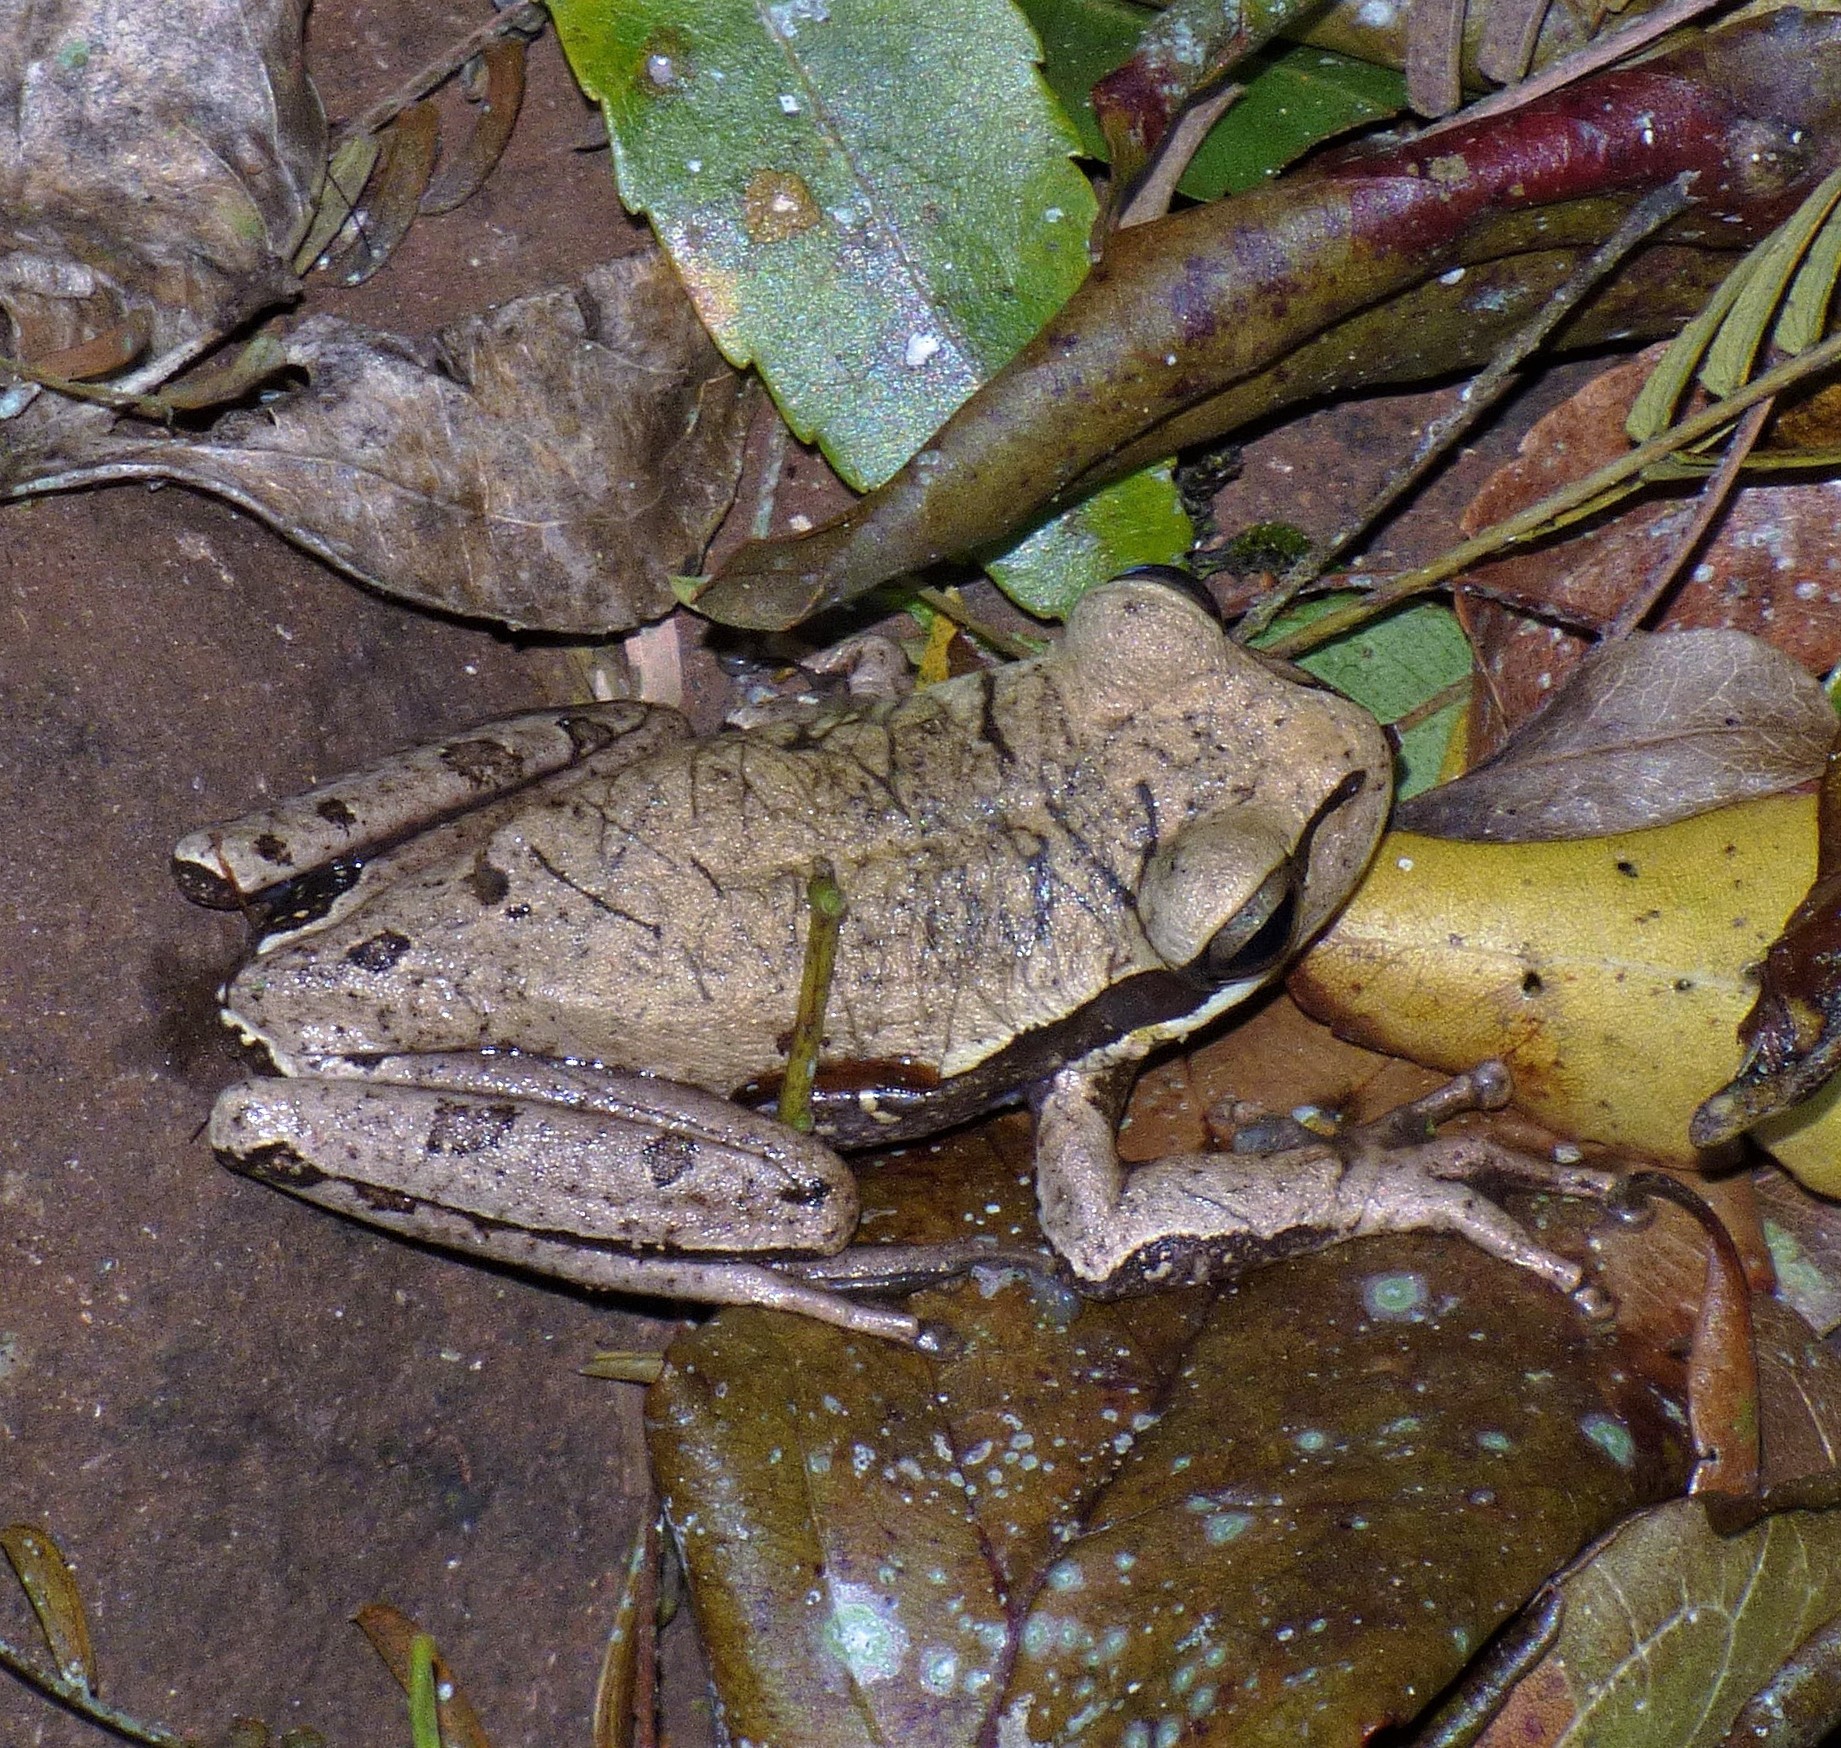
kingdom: Animalia
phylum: Chordata
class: Amphibia
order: Anura
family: Hylidae
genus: Boana
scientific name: Boana curupi
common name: Kurupitree frog
